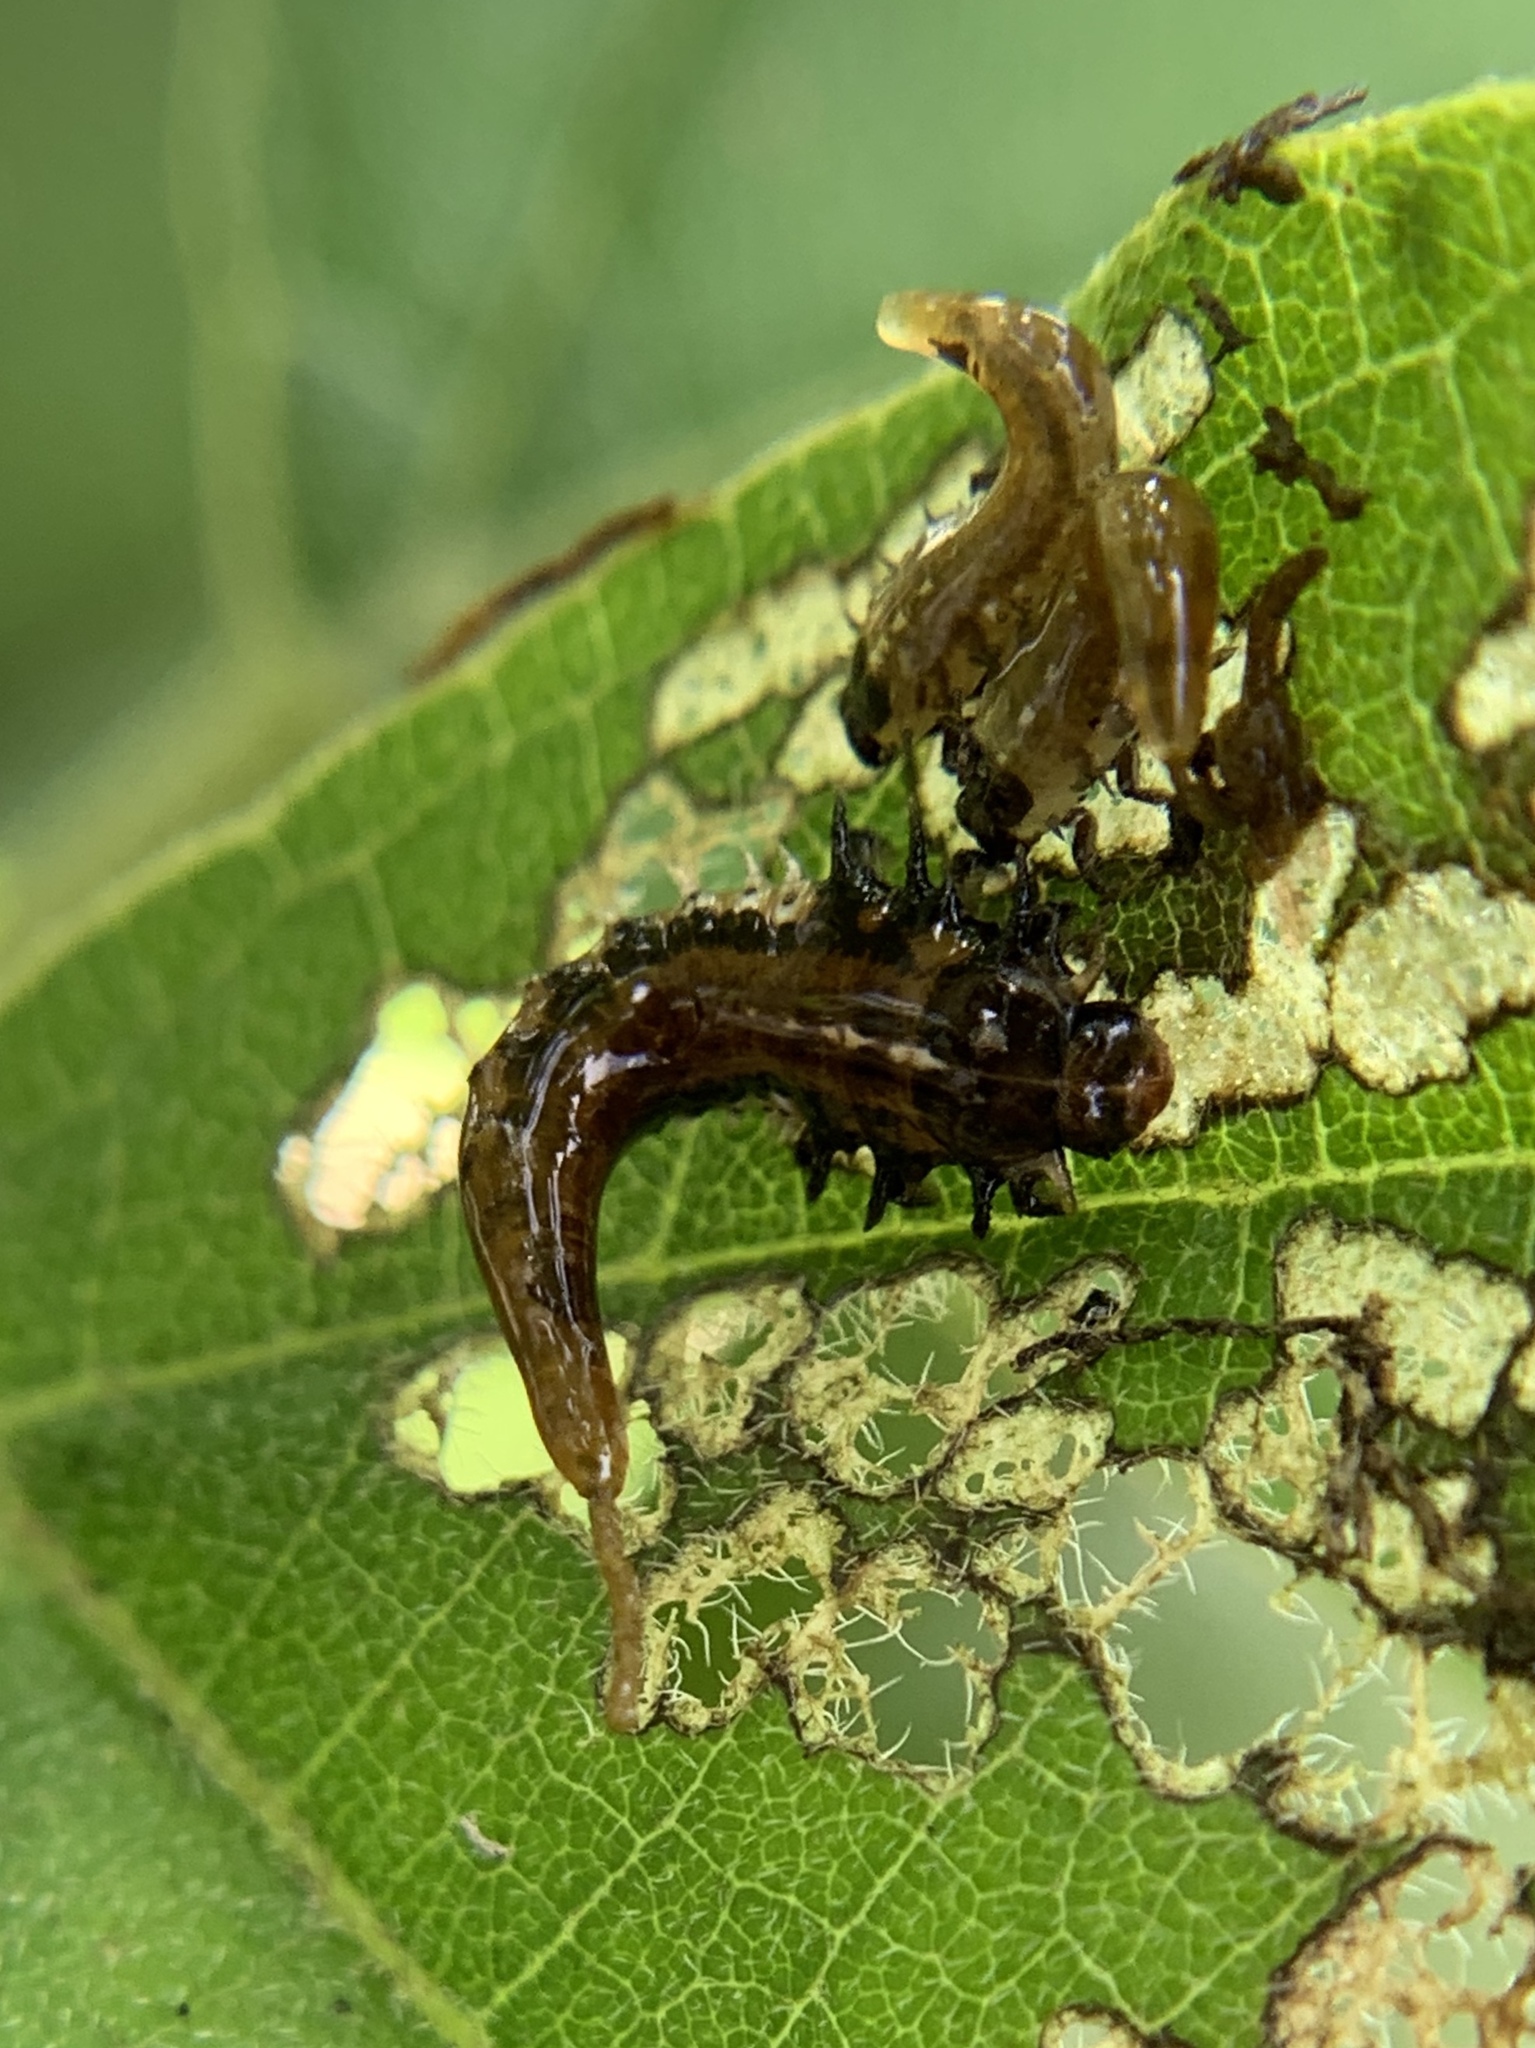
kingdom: Animalia
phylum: Arthropoda
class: Insecta
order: Coleoptera
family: Chrysomelidae
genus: Eurypepla
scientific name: Eurypepla calochroma
